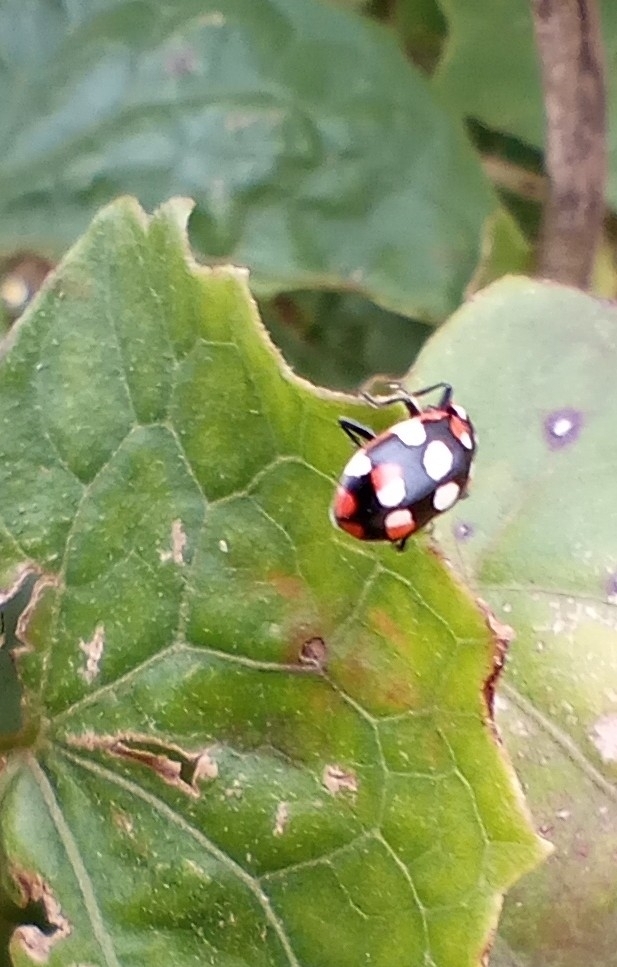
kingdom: Animalia
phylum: Arthropoda
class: Insecta
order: Coleoptera
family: Coccinellidae
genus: Eriopis
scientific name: Eriopis connexa
